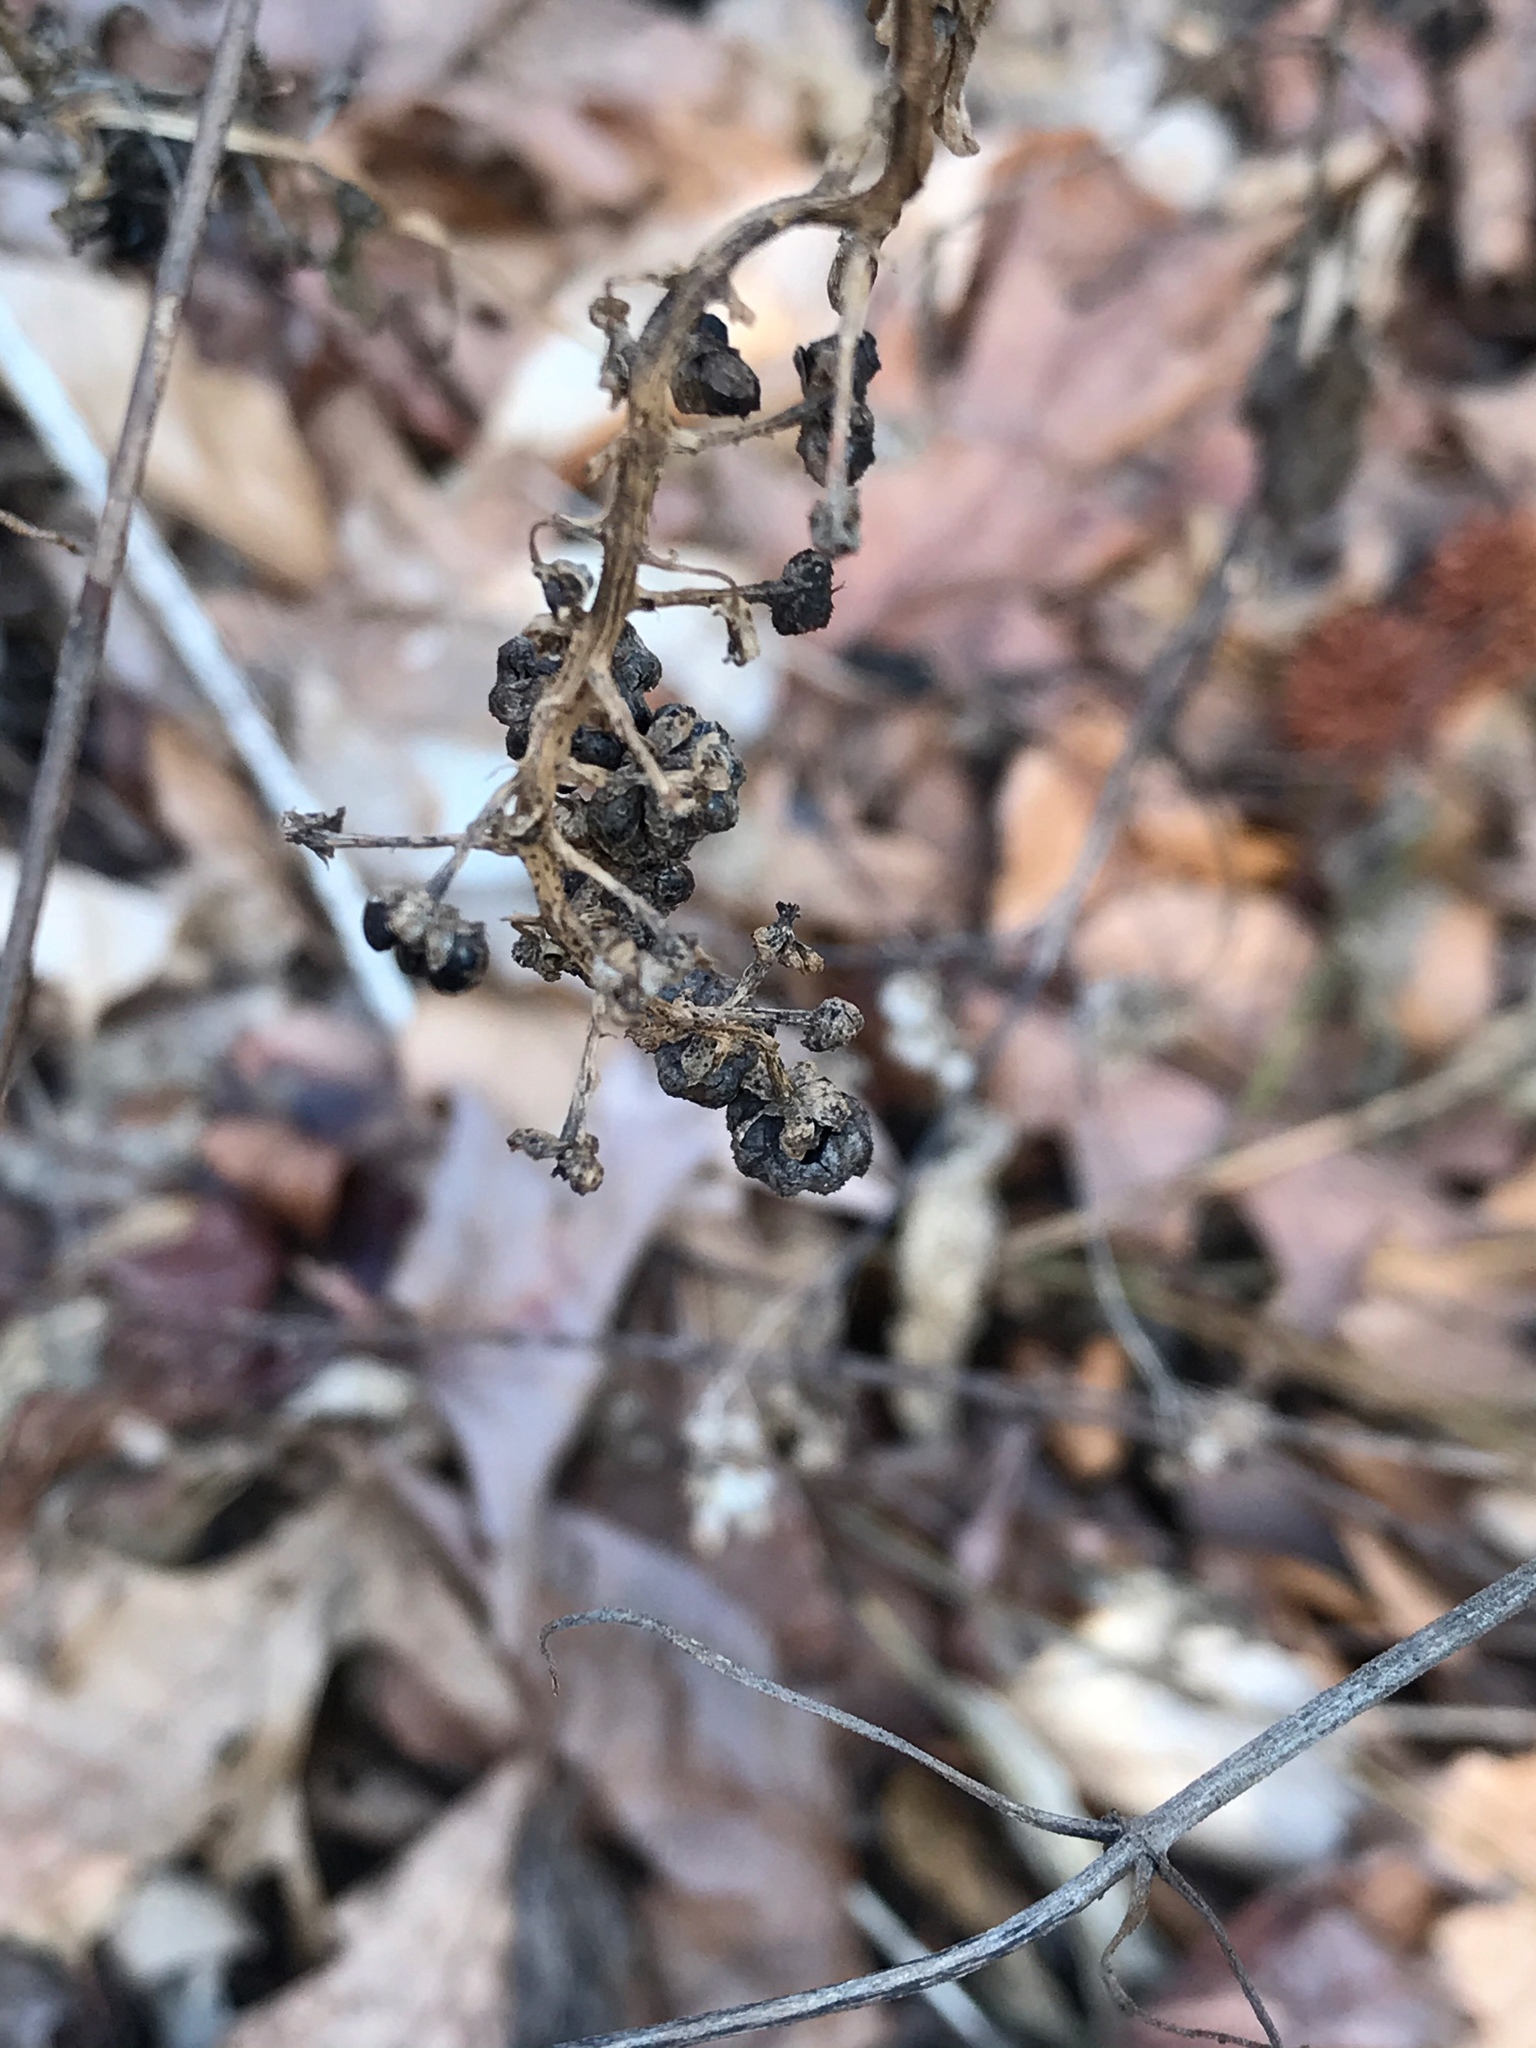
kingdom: Plantae
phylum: Tracheophyta
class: Magnoliopsida
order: Caryophyllales
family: Phytolaccaceae
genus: Phytolacca
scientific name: Phytolacca americana
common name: American pokeweed
